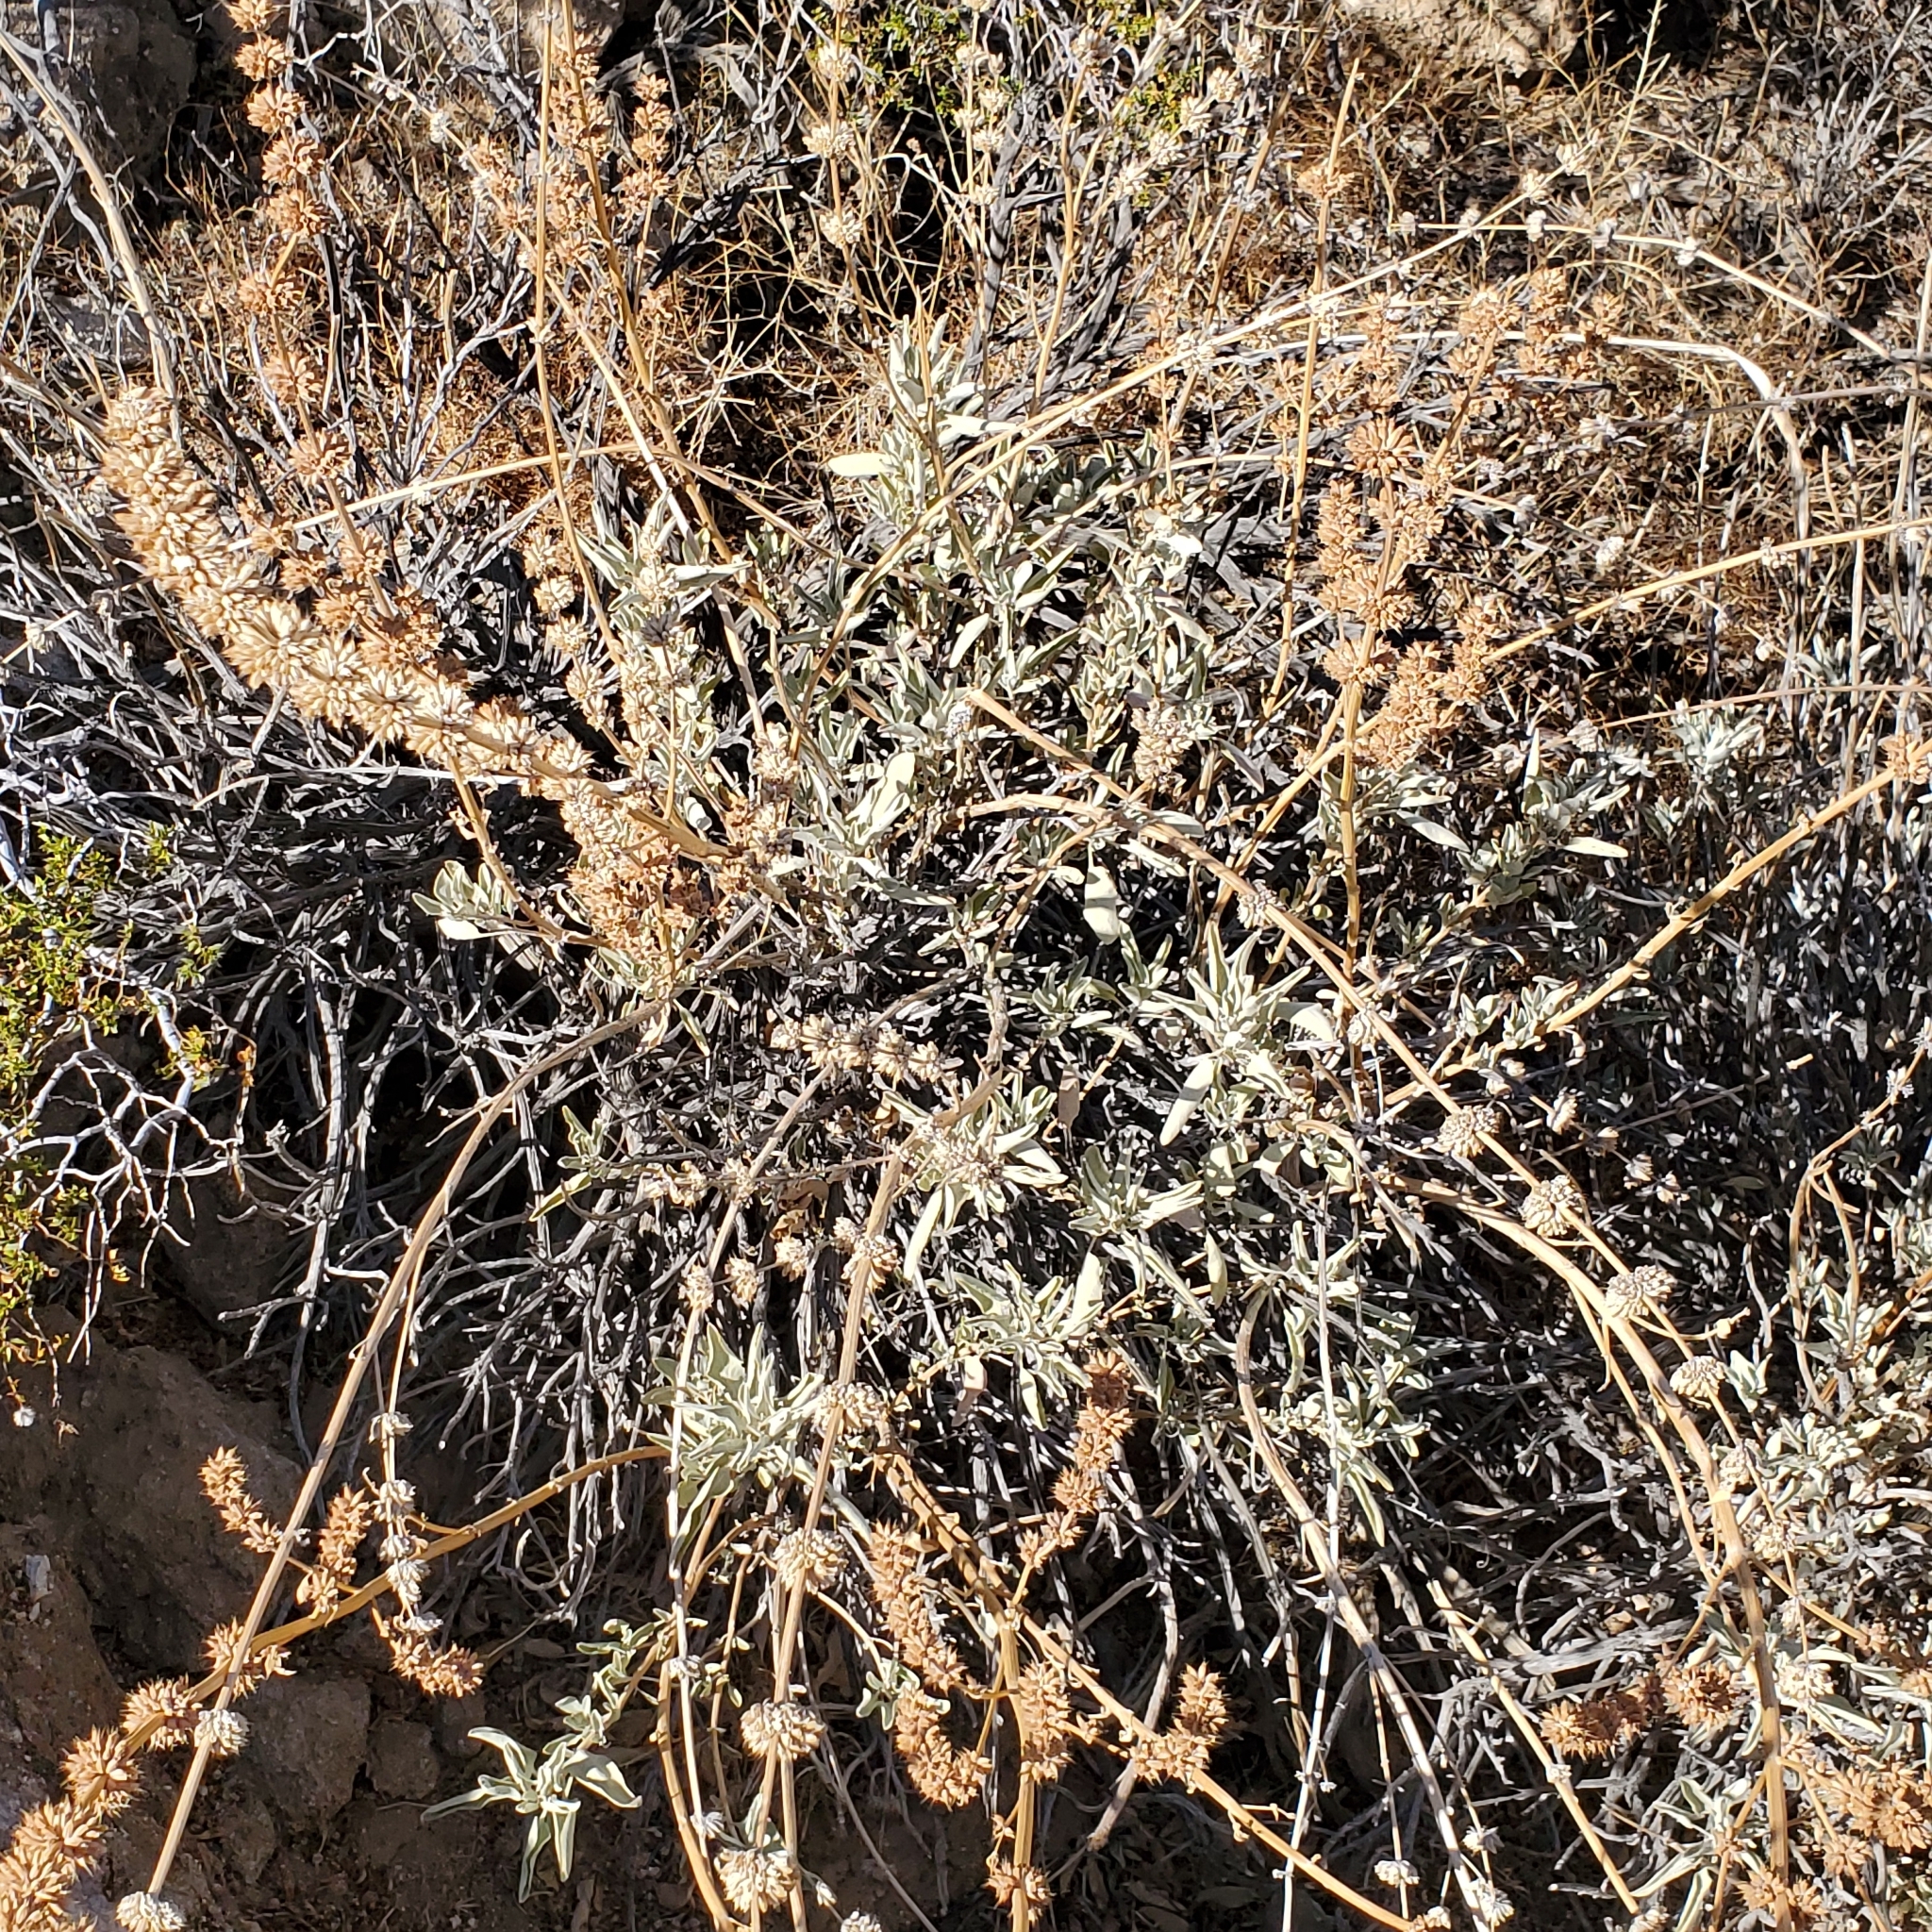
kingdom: Plantae
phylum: Tracheophyta
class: Magnoliopsida
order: Lamiales
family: Lamiaceae
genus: Salvia
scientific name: Salvia vaseyi
